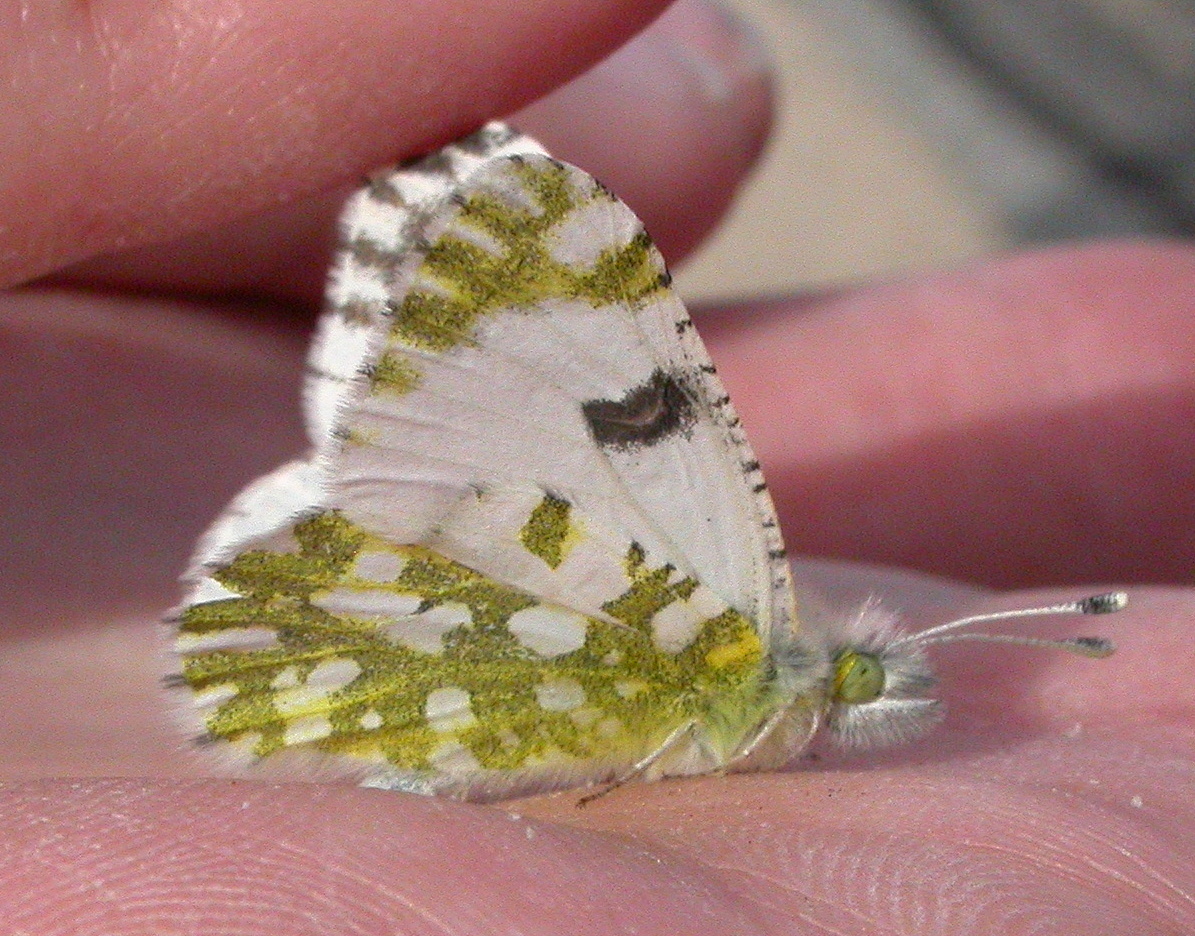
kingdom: Animalia
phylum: Arthropoda
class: Insecta
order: Lepidoptera
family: Pieridae
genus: Euchloe
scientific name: Euchloe lotta
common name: Desert marble
